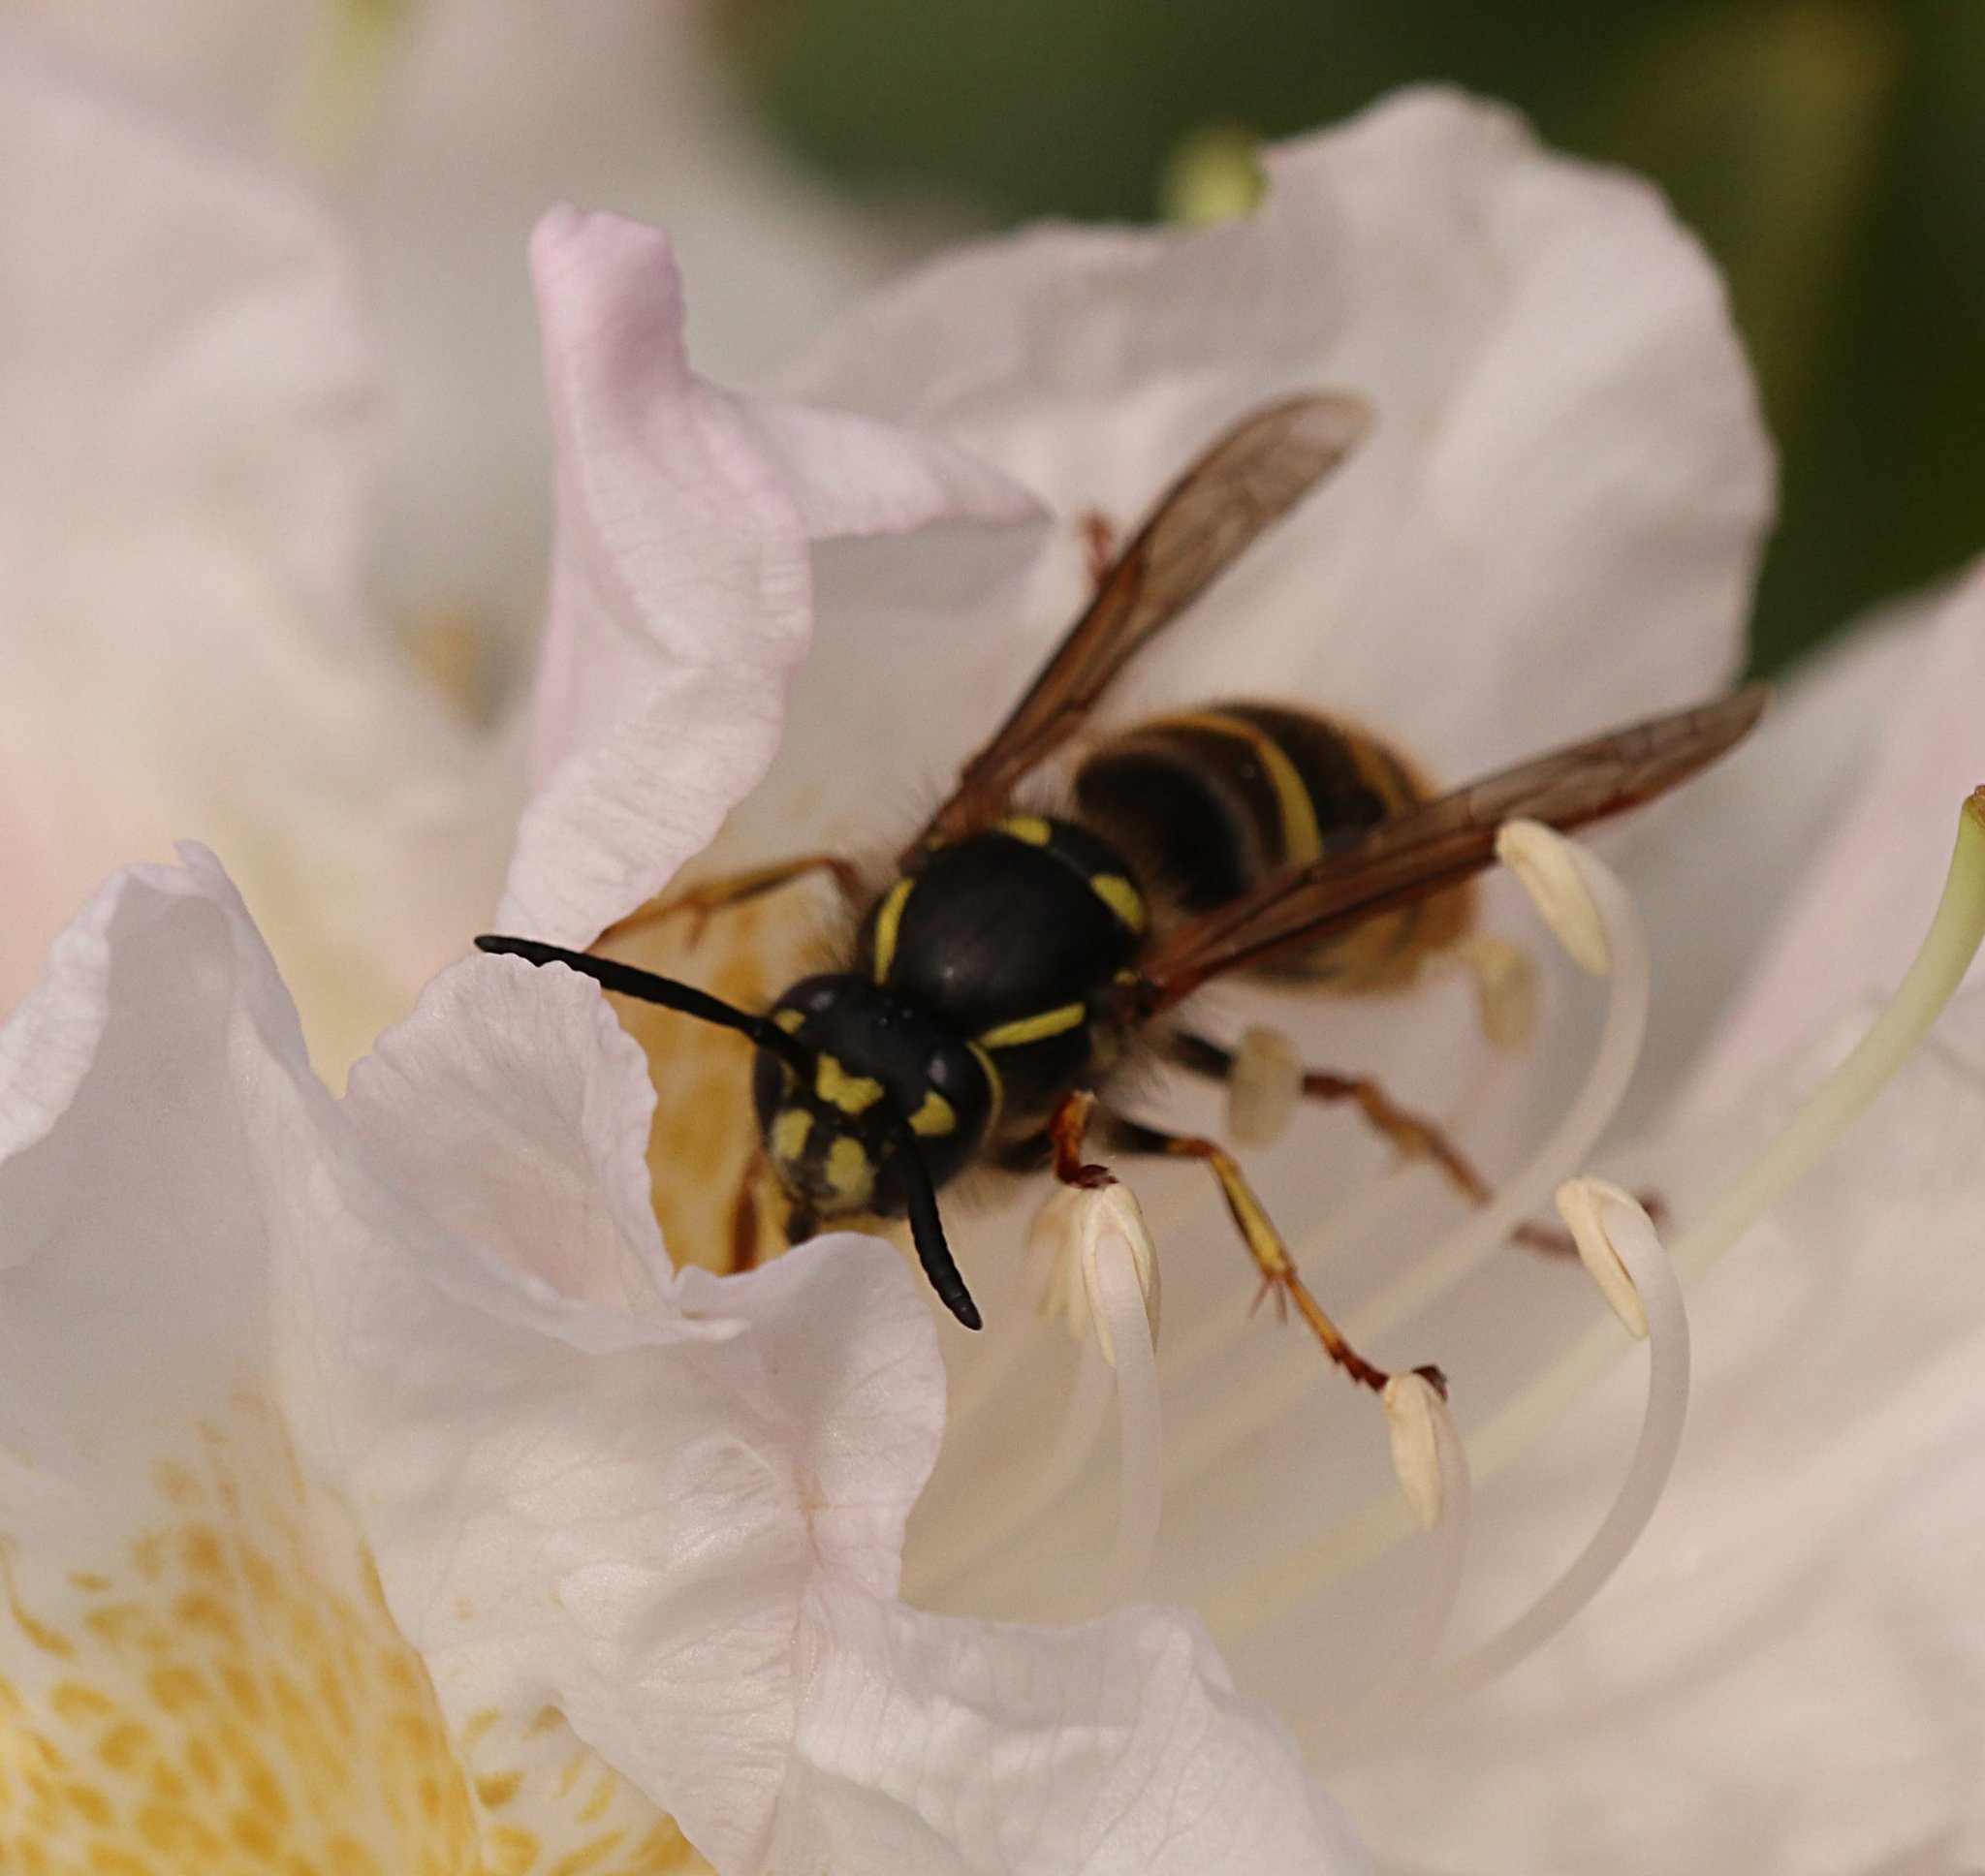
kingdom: Animalia
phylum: Arthropoda
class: Insecta
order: Hymenoptera
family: Vespidae
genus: Vespula
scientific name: Vespula vulgaris
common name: Common wasp
